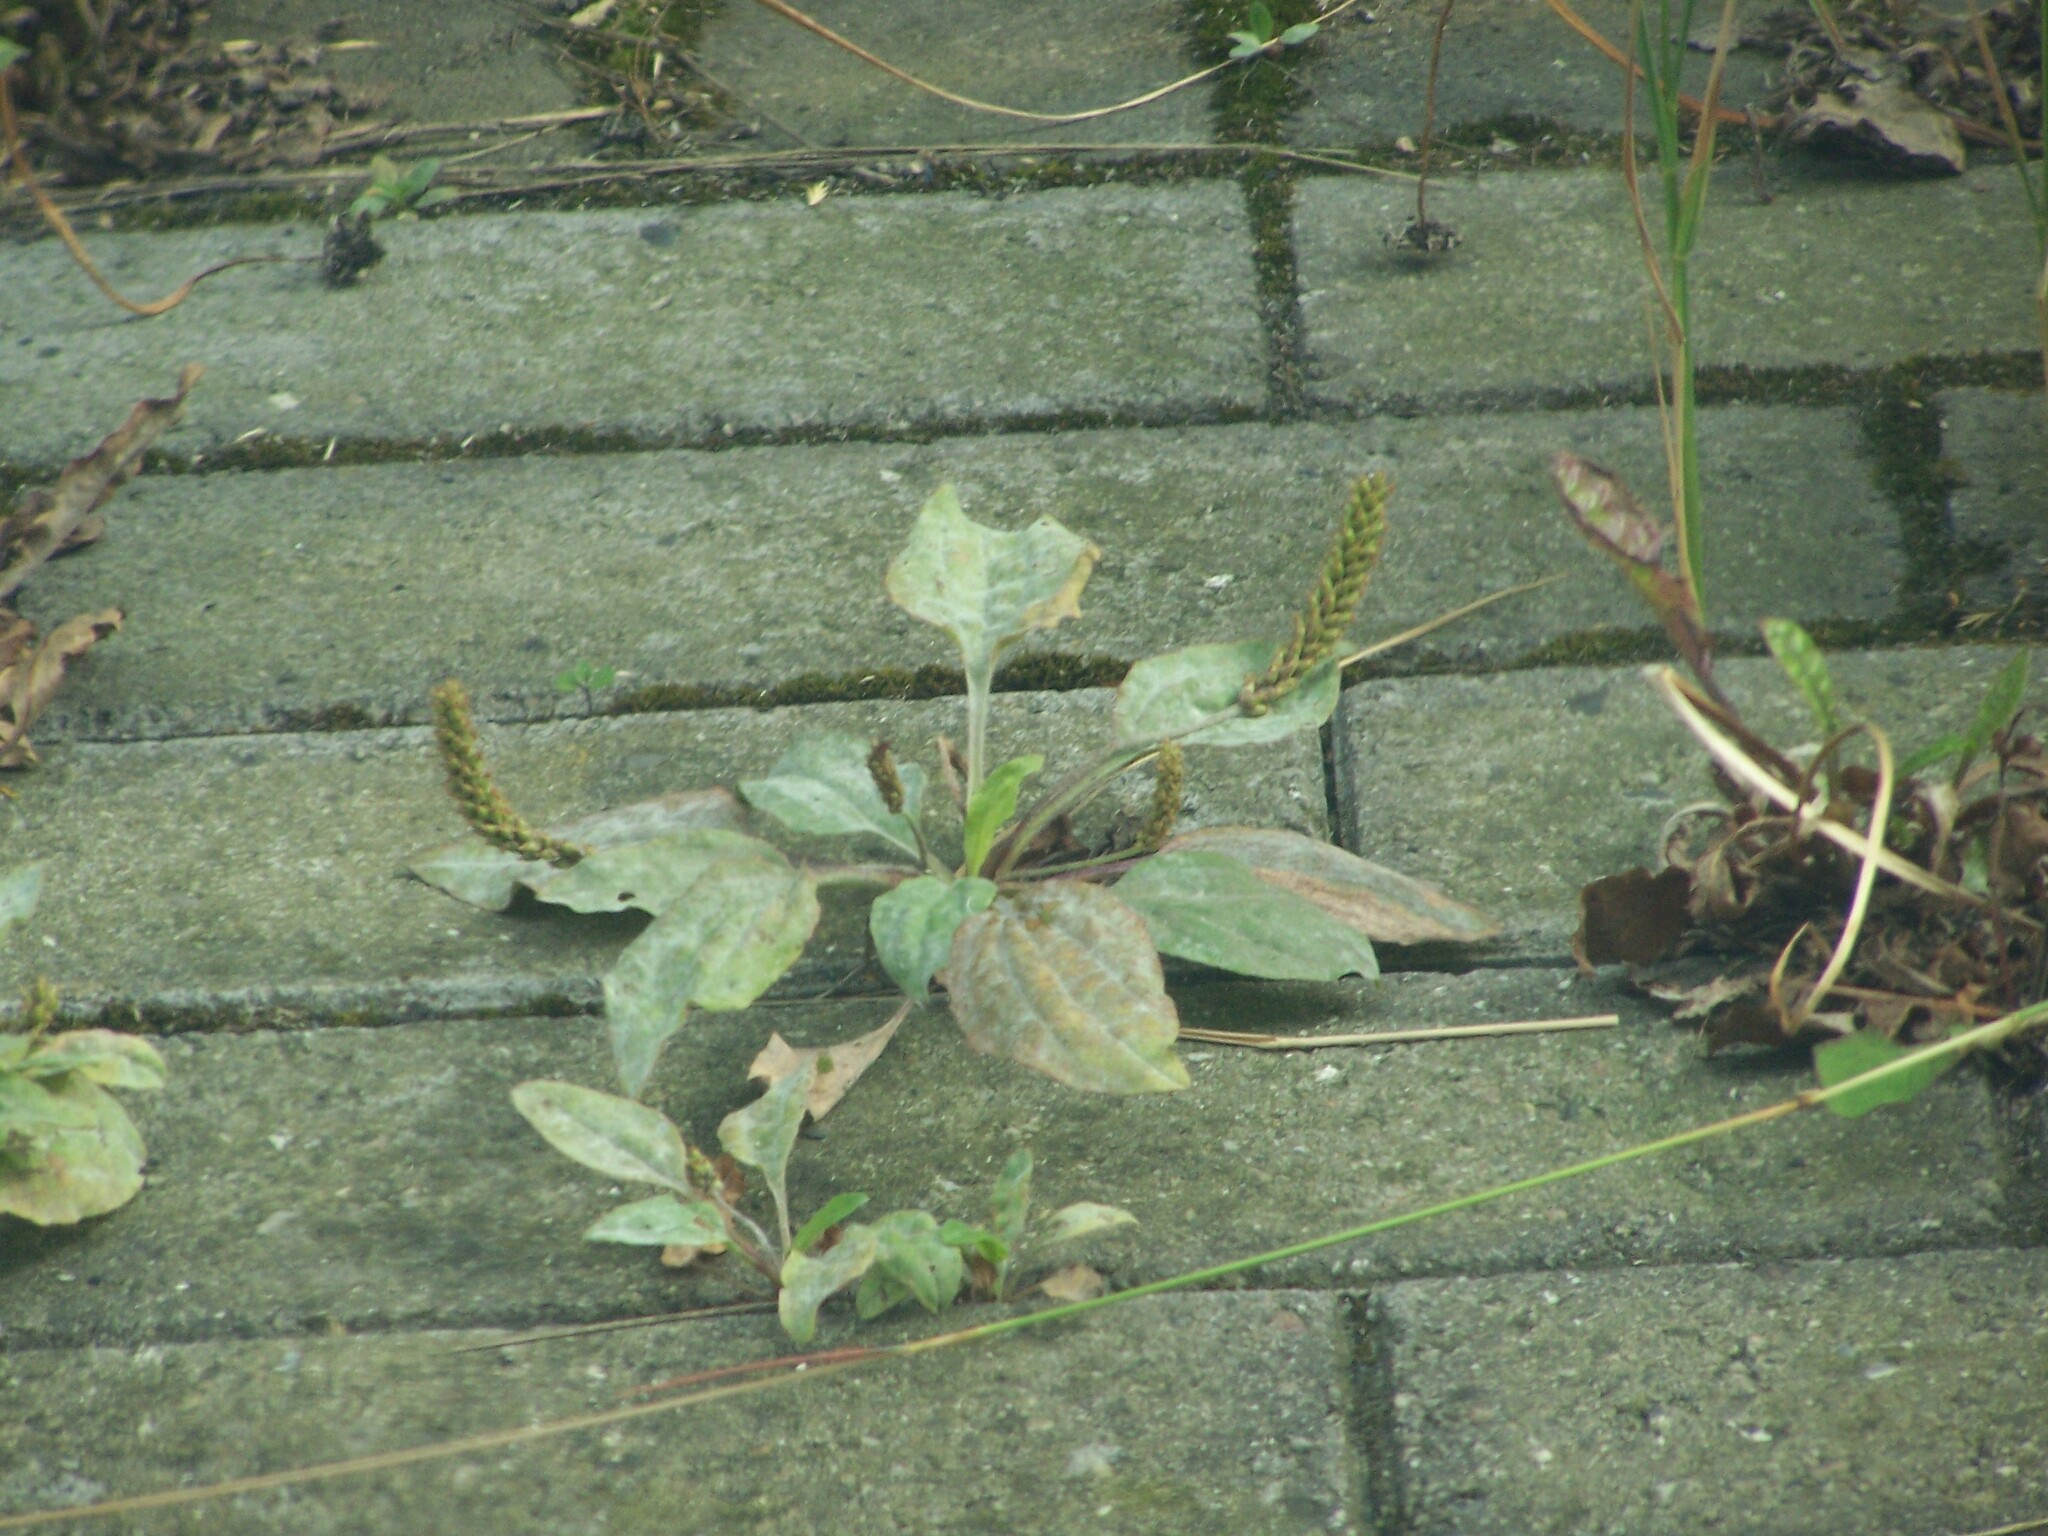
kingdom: Plantae
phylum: Tracheophyta
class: Magnoliopsida
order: Lamiales
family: Plantaginaceae
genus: Plantago
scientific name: Plantago major
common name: Common plantain
